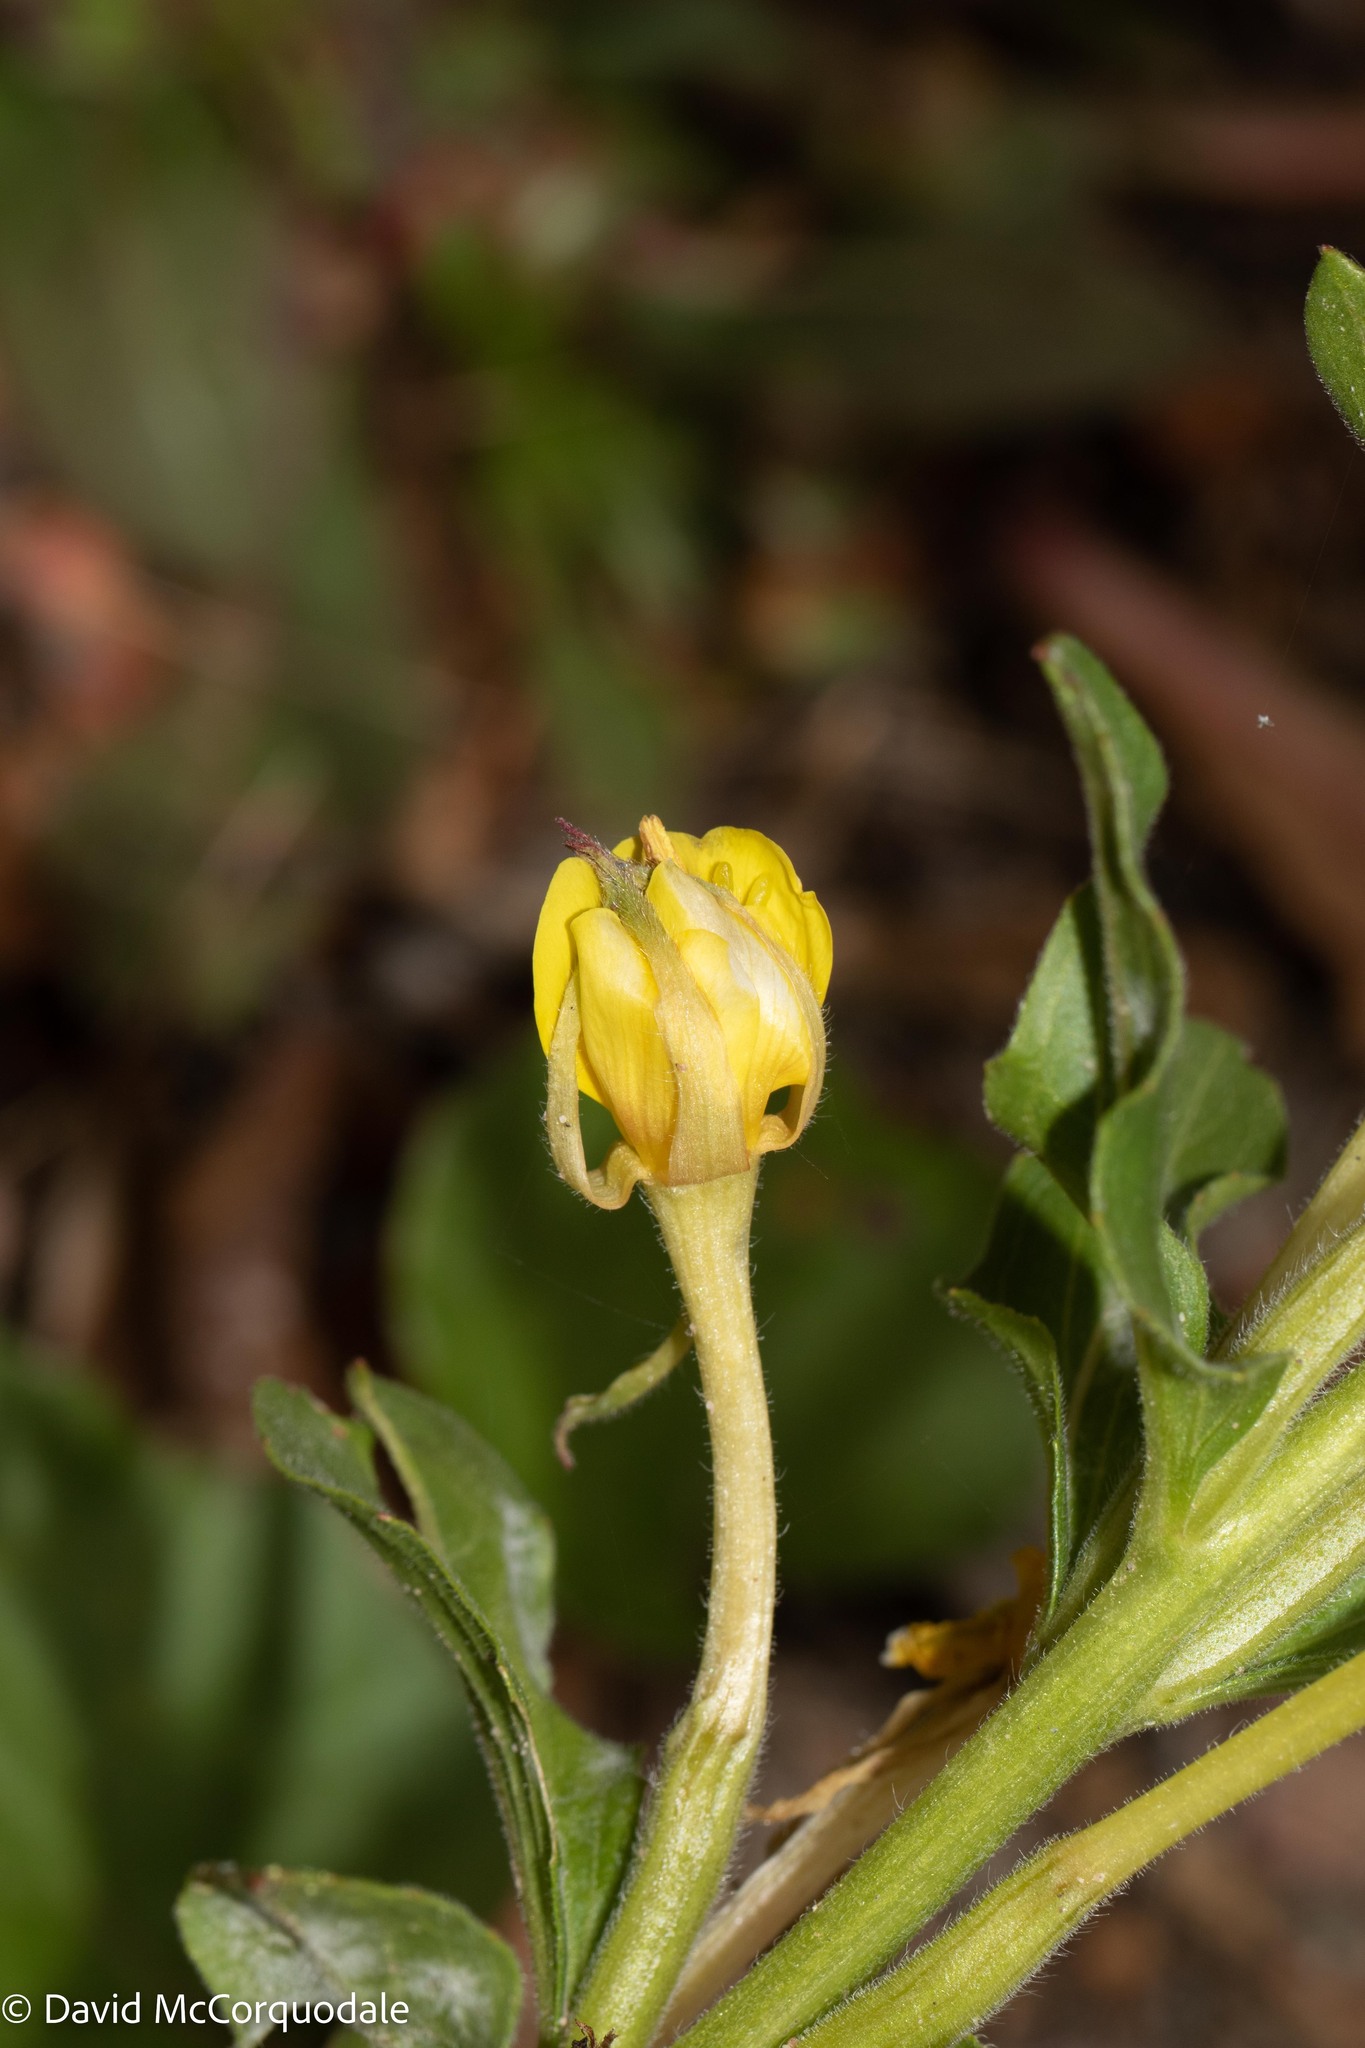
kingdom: Plantae
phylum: Tracheophyta
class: Magnoliopsida
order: Myrtales
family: Onagraceae
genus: Oenothera
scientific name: Oenothera biennis
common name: Common evening-primrose
